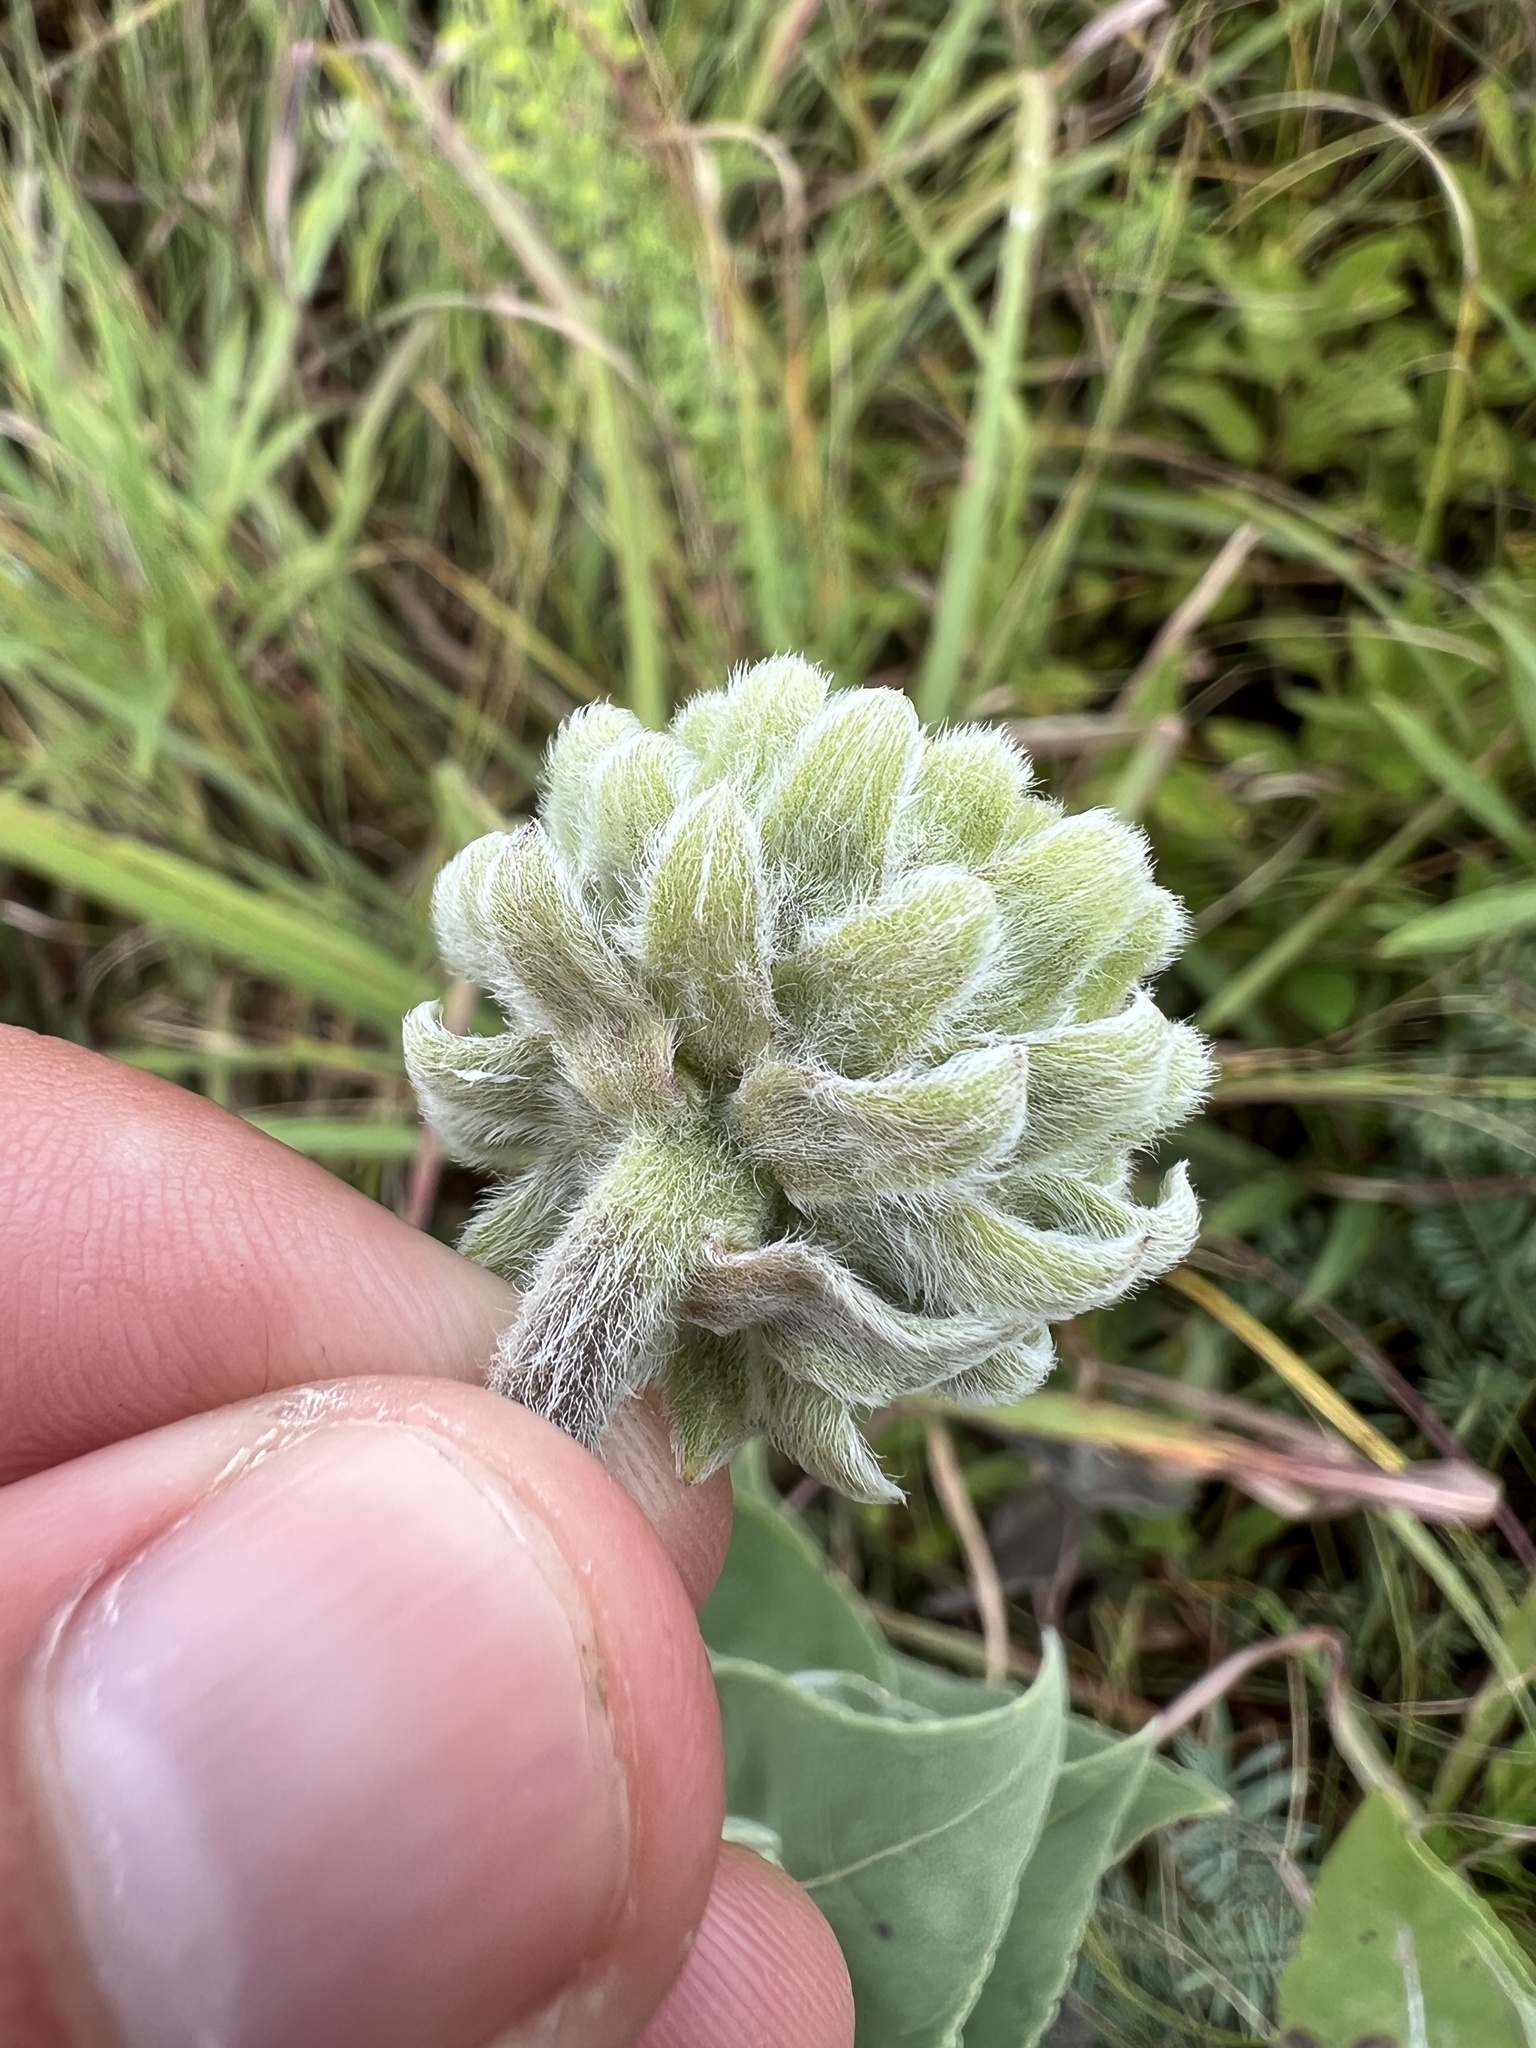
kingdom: Plantae
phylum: Tracheophyta
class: Magnoliopsida
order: Asterales
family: Asteraceae
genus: Helianthus
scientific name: Helianthus mollis
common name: Ashy sunflower
